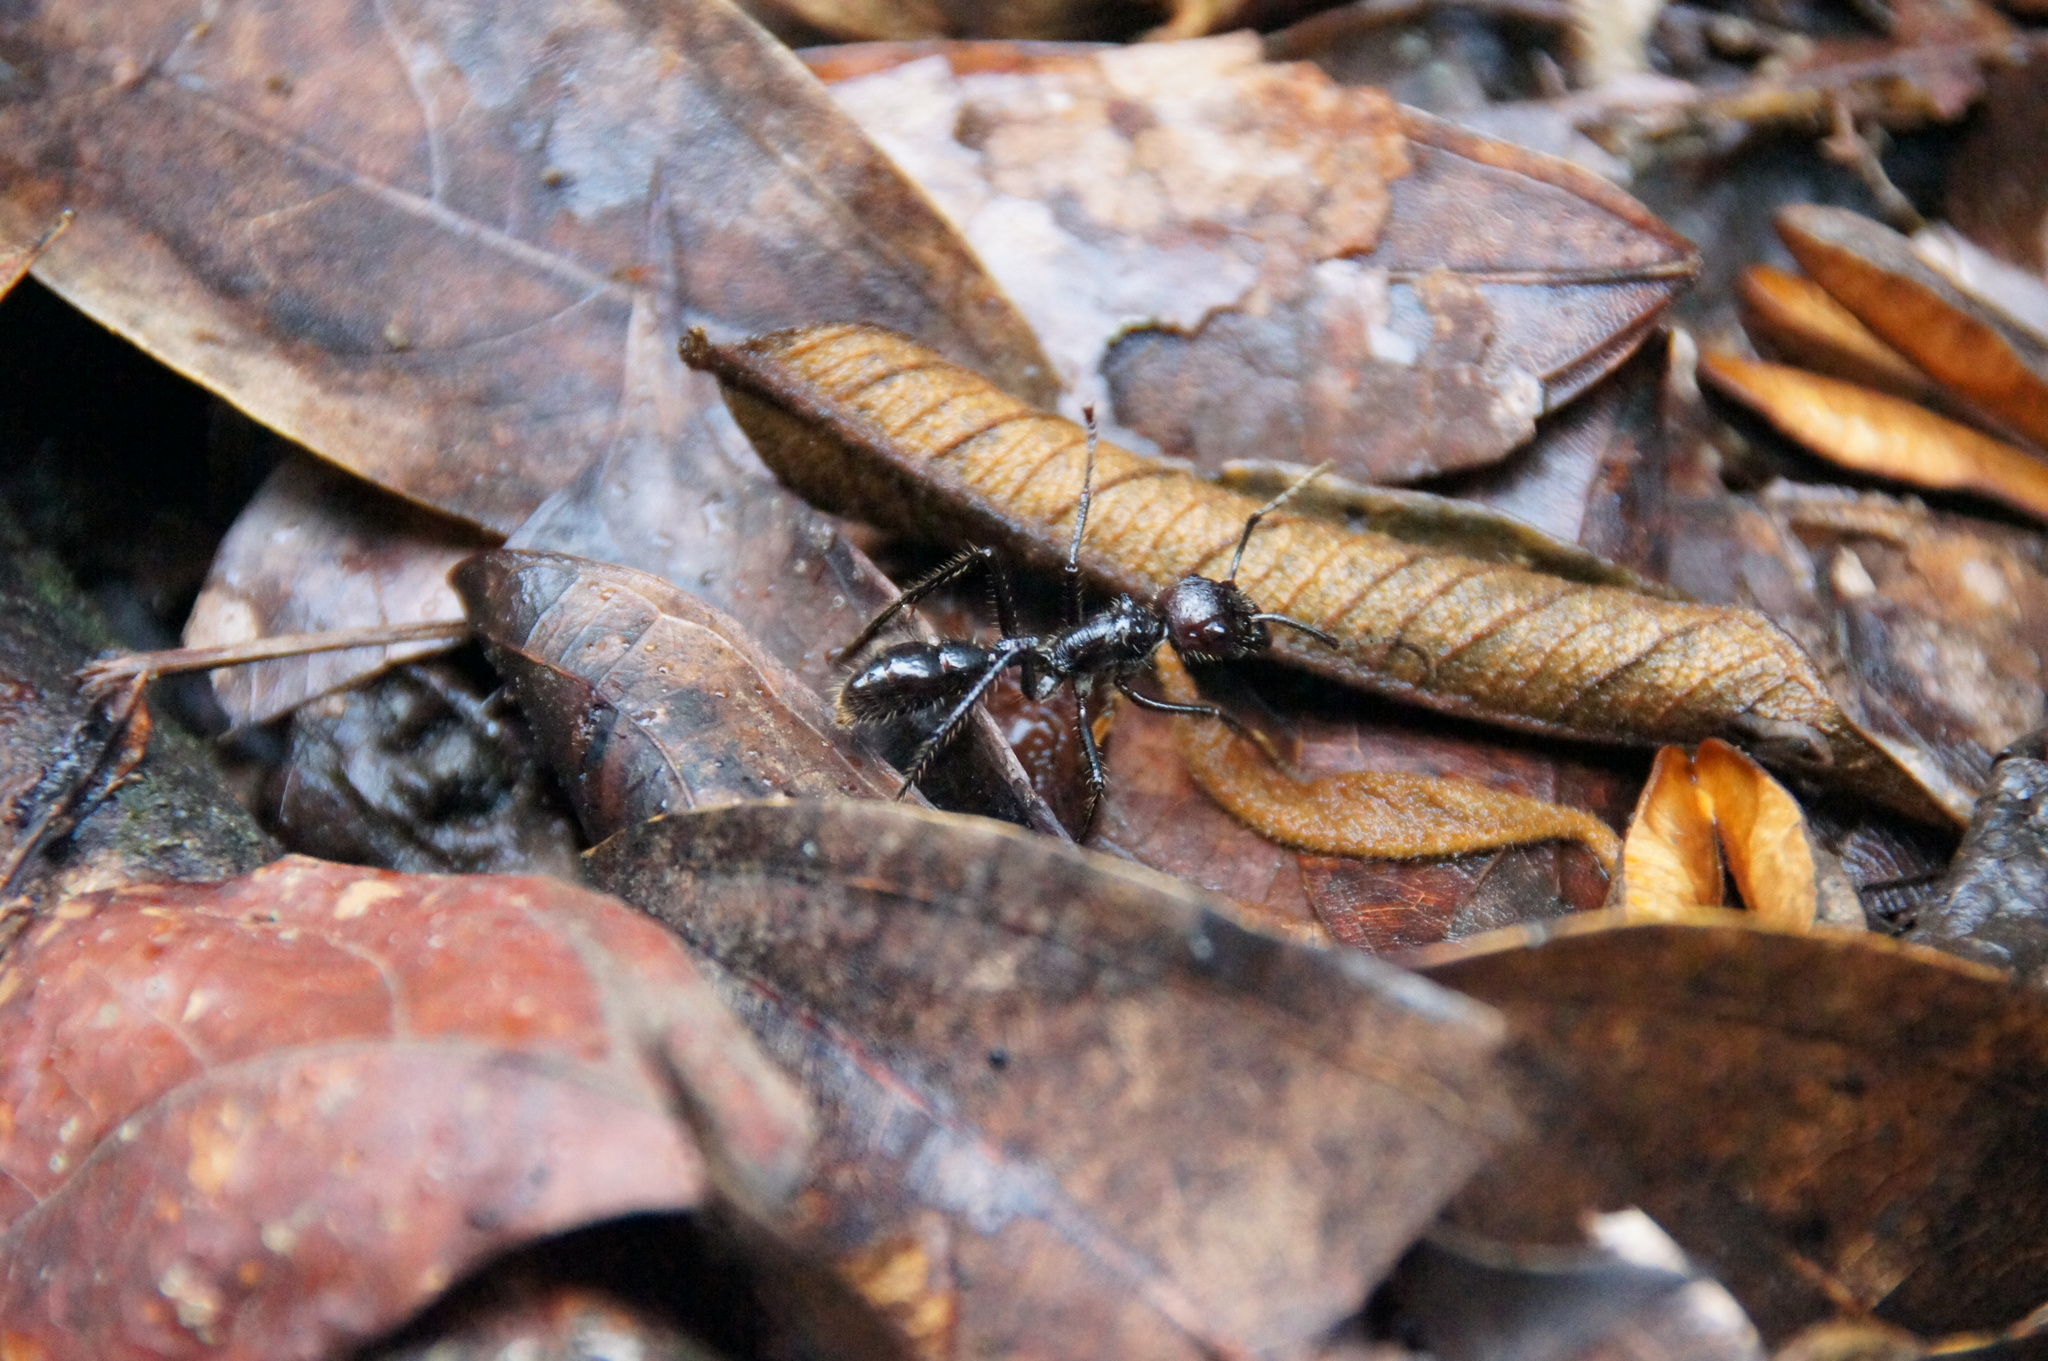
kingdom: Animalia
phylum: Arthropoda
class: Insecta
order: Hymenoptera
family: Formicidae
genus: Paraponera
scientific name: Paraponera clavata
